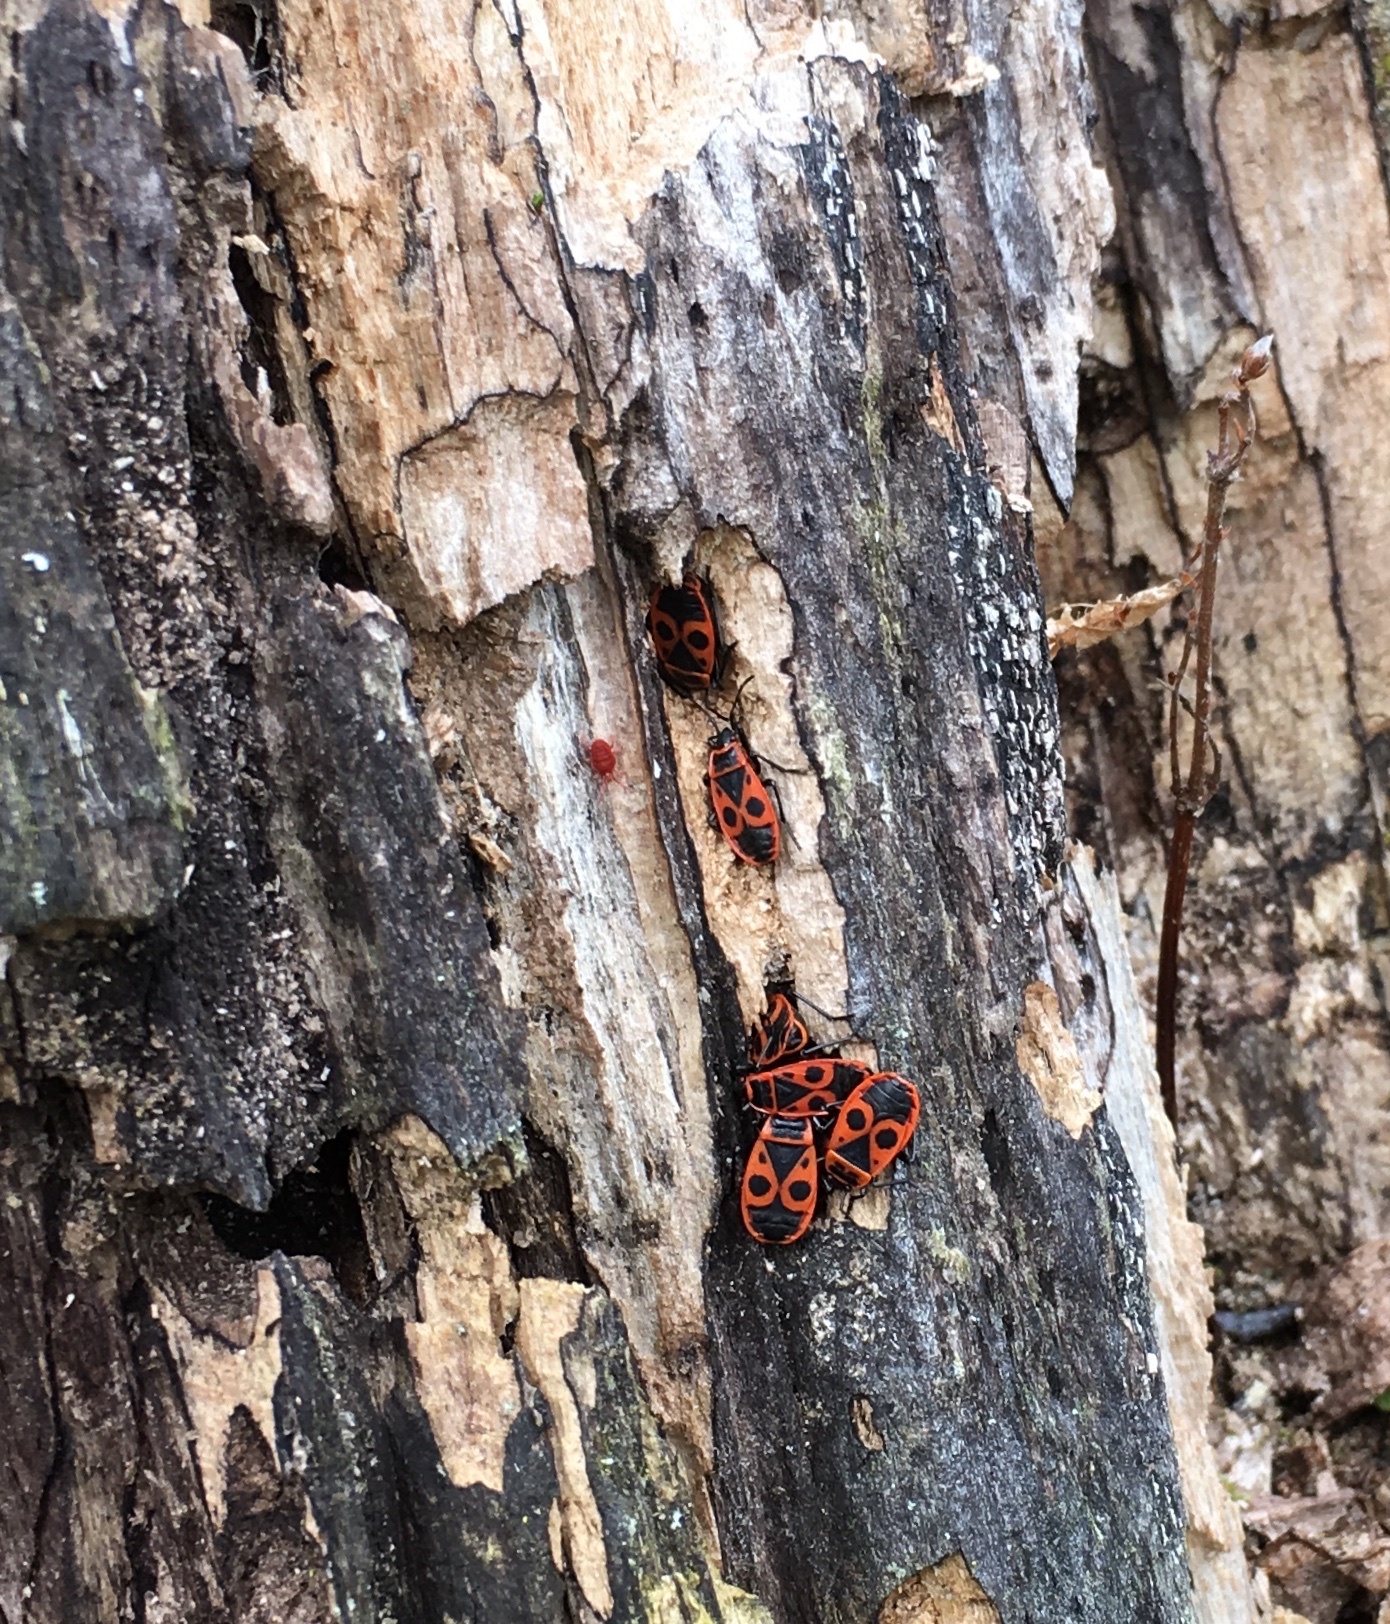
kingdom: Animalia
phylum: Arthropoda
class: Insecta
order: Hemiptera
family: Pyrrhocoridae
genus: Pyrrhocoris
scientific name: Pyrrhocoris apterus
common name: Firebug
